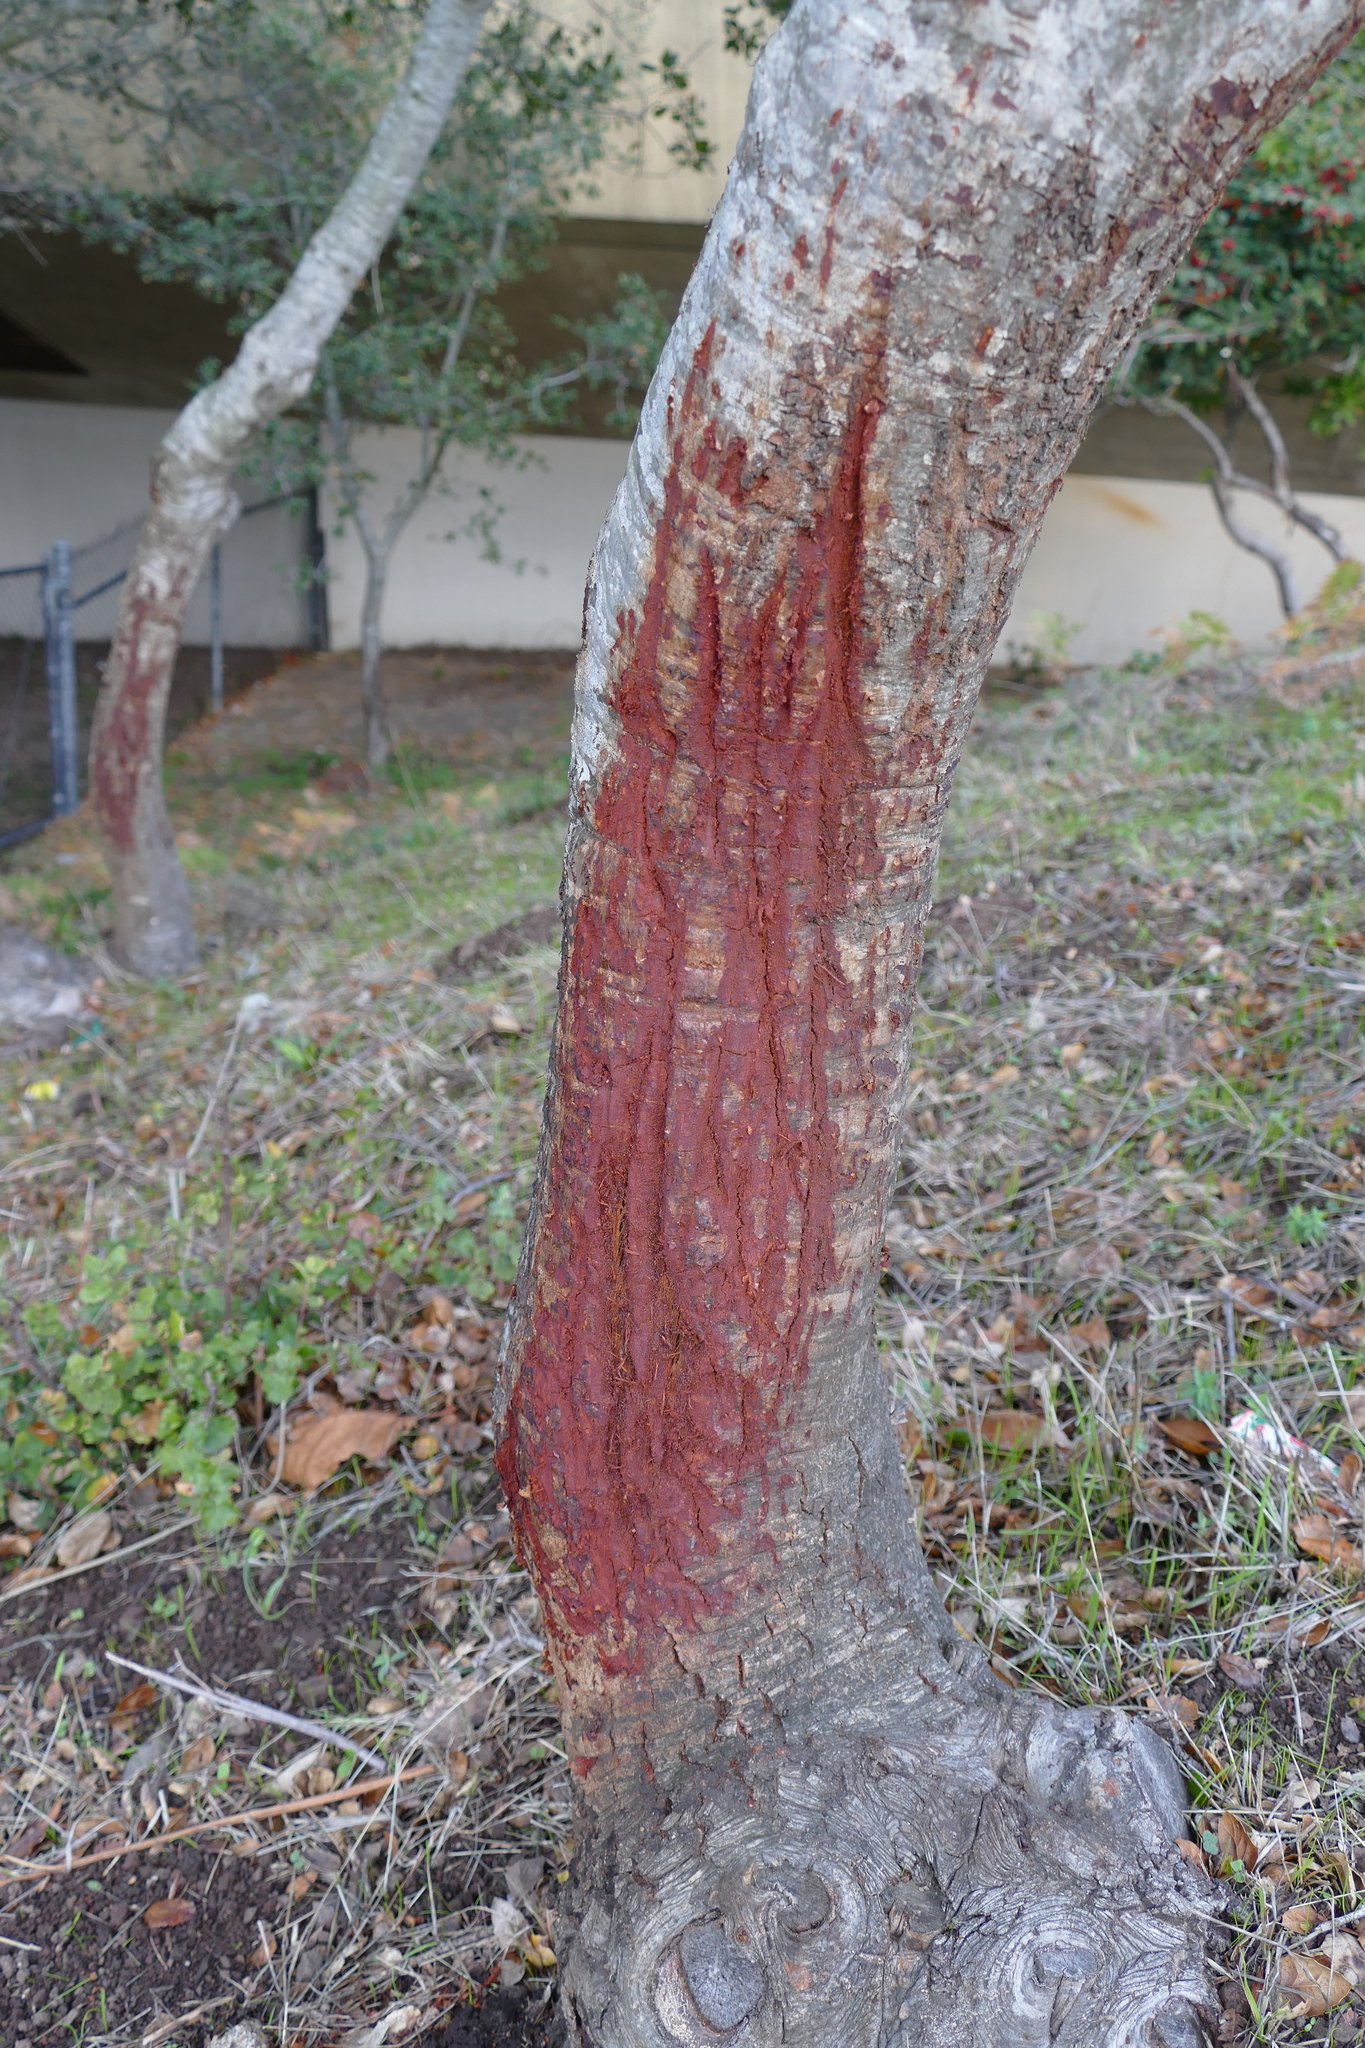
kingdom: Animalia
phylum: Chordata
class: Mammalia
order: Artiodactyla
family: Cervidae
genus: Odocoileus
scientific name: Odocoileus hemionus
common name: Mule deer
